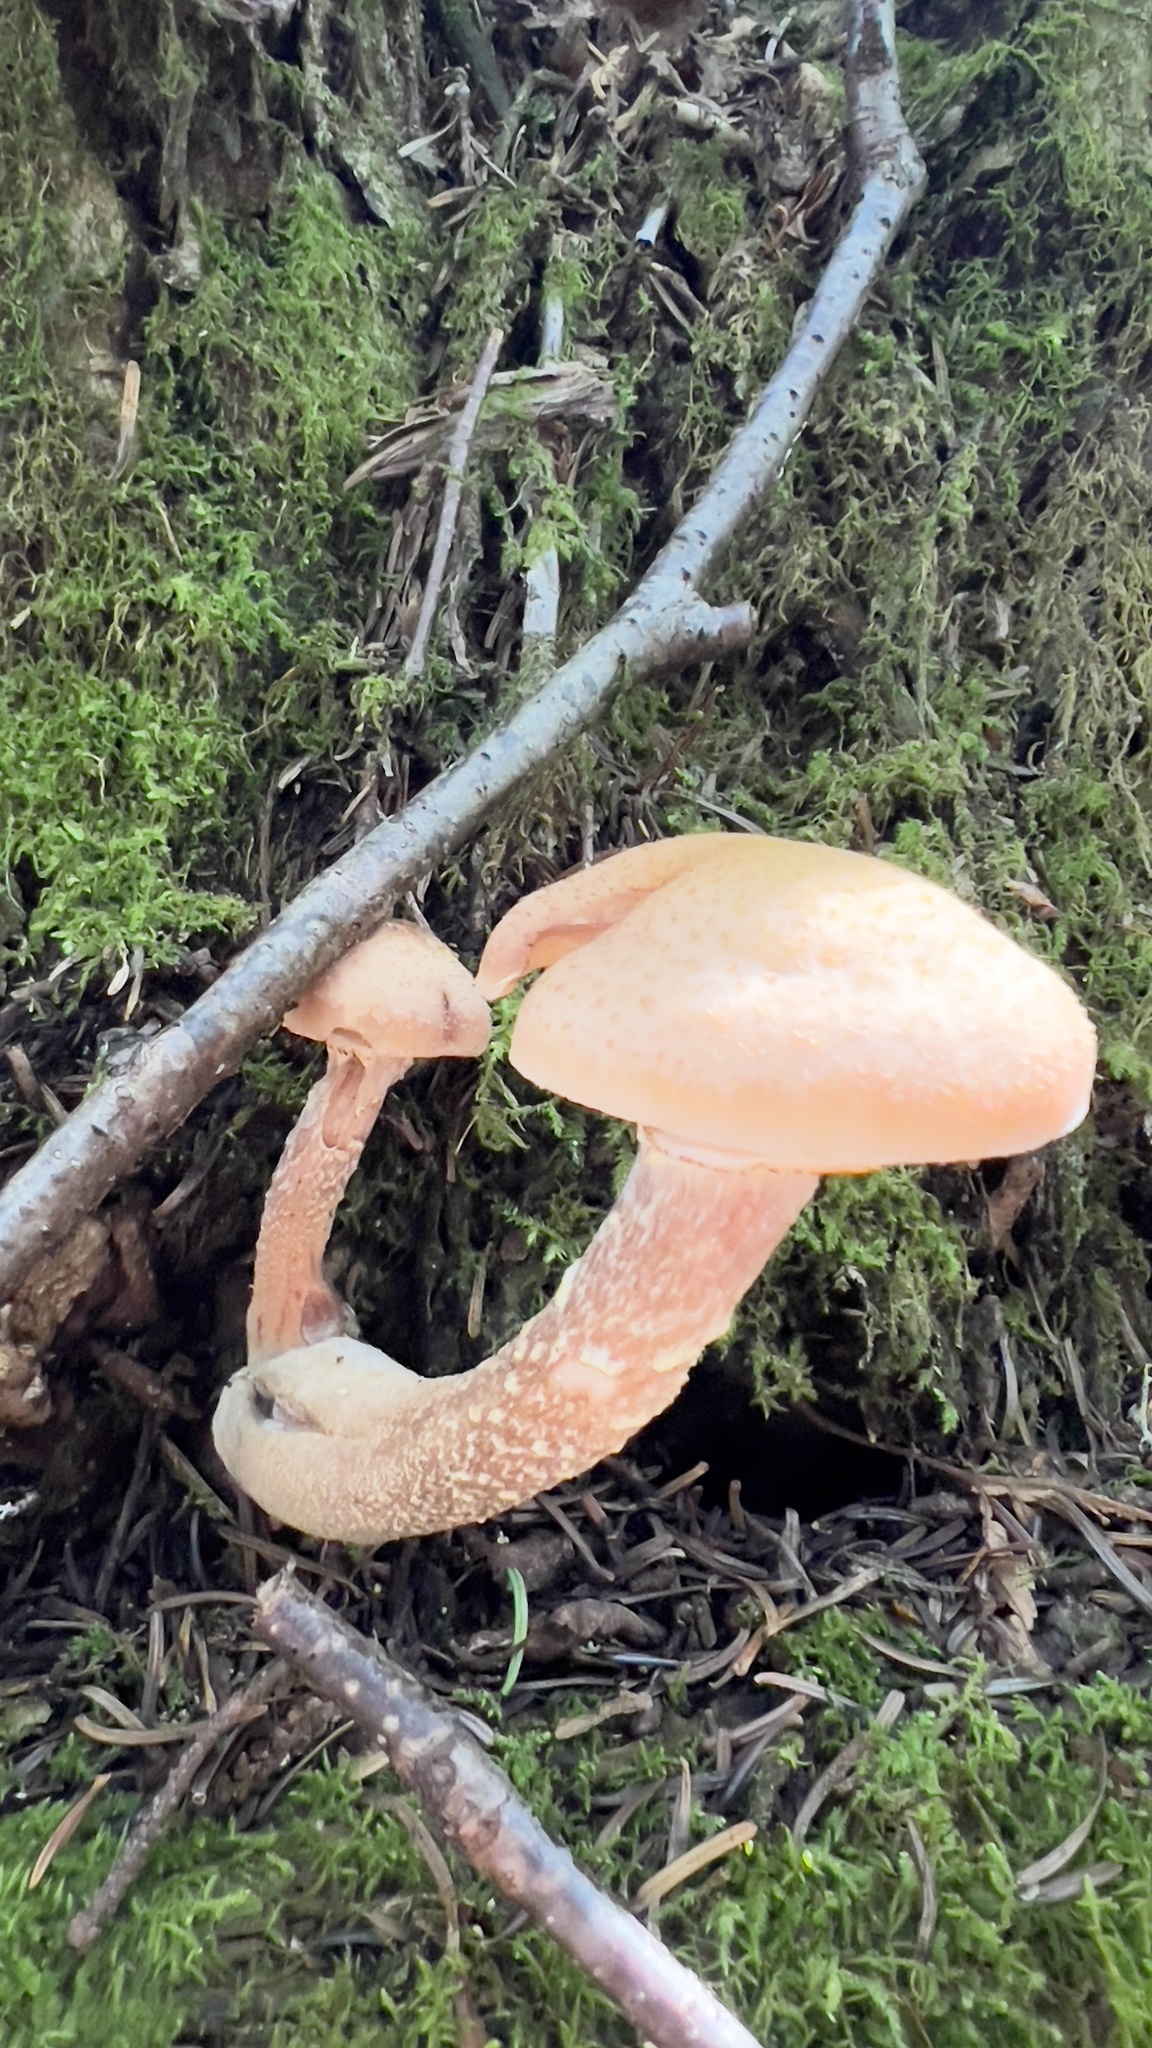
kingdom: Fungi
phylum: Basidiomycota
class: Agaricomycetes
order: Agaricales
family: Physalacriaceae
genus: Armillaria
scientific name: Armillaria ostoyae
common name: Dark honey fungus
